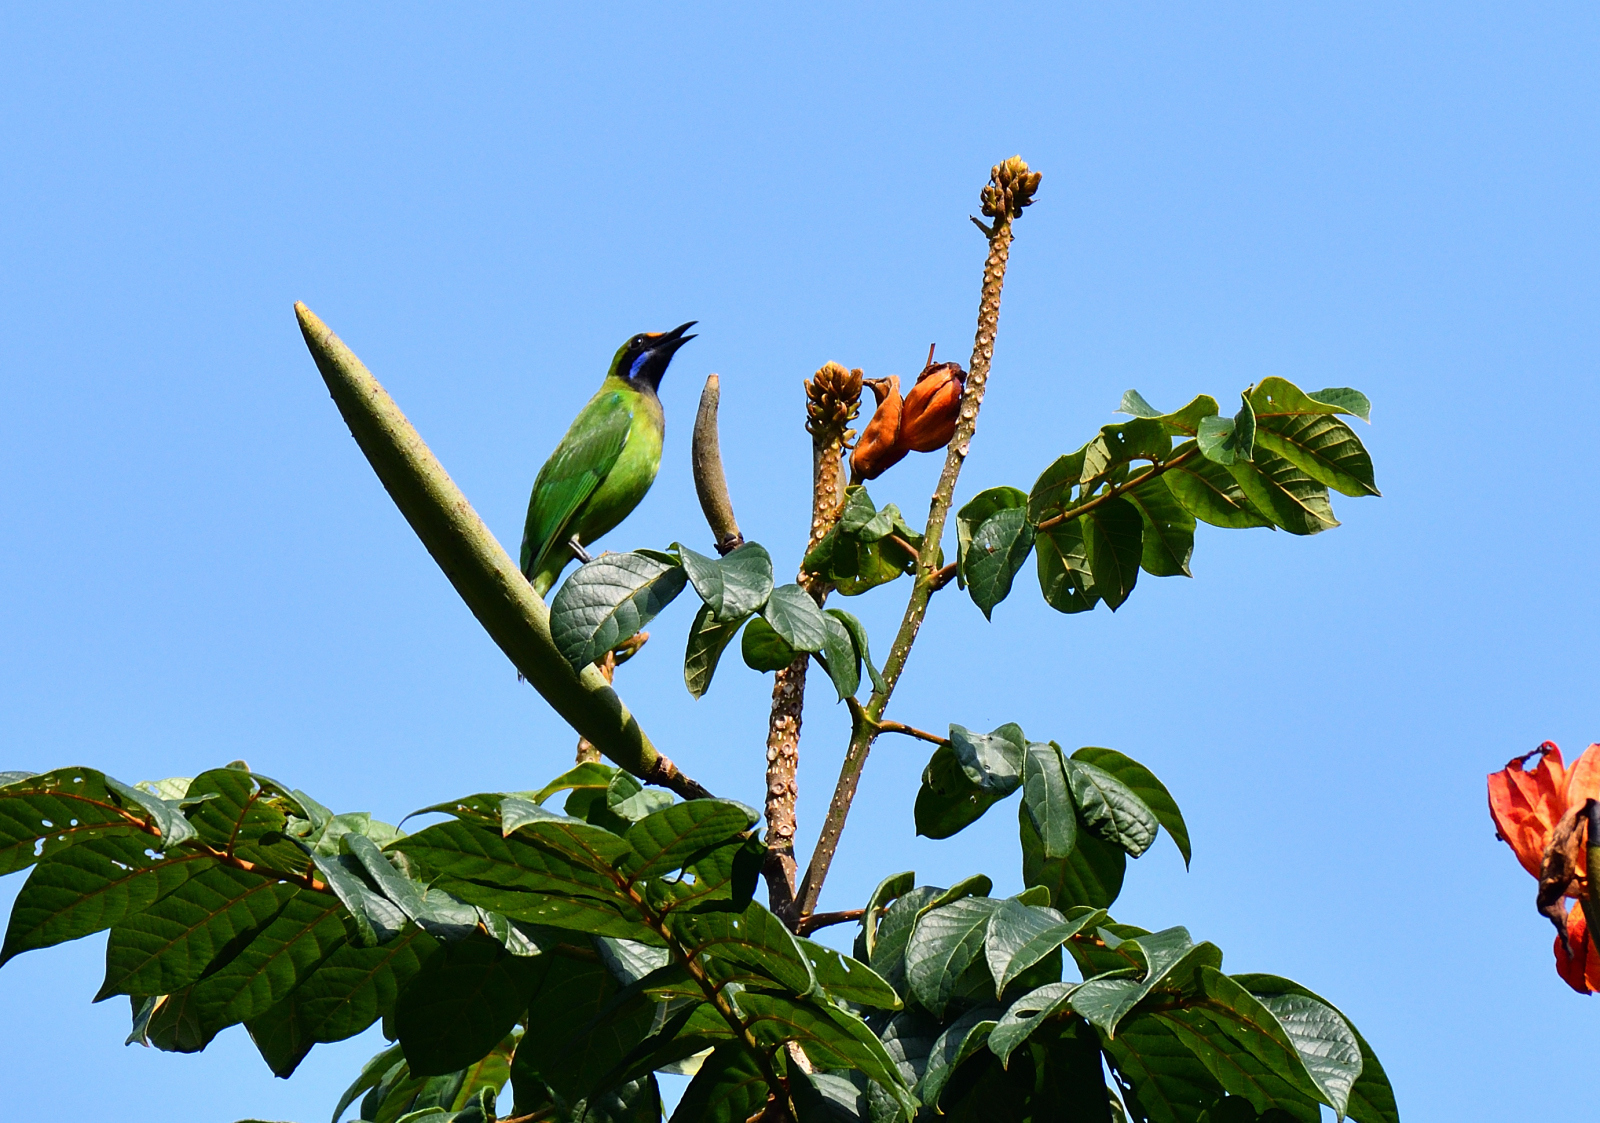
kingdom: Animalia
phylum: Chordata
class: Aves
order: Passeriformes
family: Chloropseidae
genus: Chloropsis
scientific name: Chloropsis aurifrons
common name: Golden-fronted leafbird
